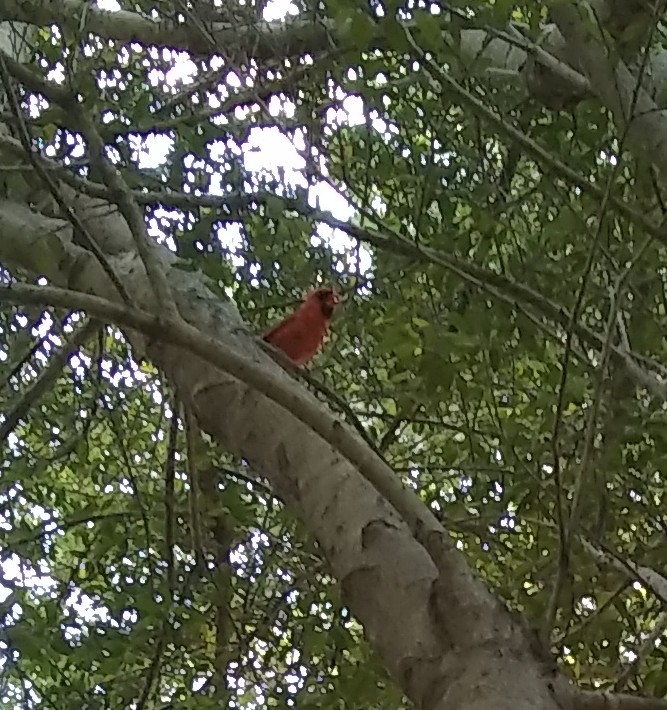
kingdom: Animalia
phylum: Chordata
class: Aves
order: Passeriformes
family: Cardinalidae
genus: Cardinalis
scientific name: Cardinalis cardinalis
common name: Northern cardinal
